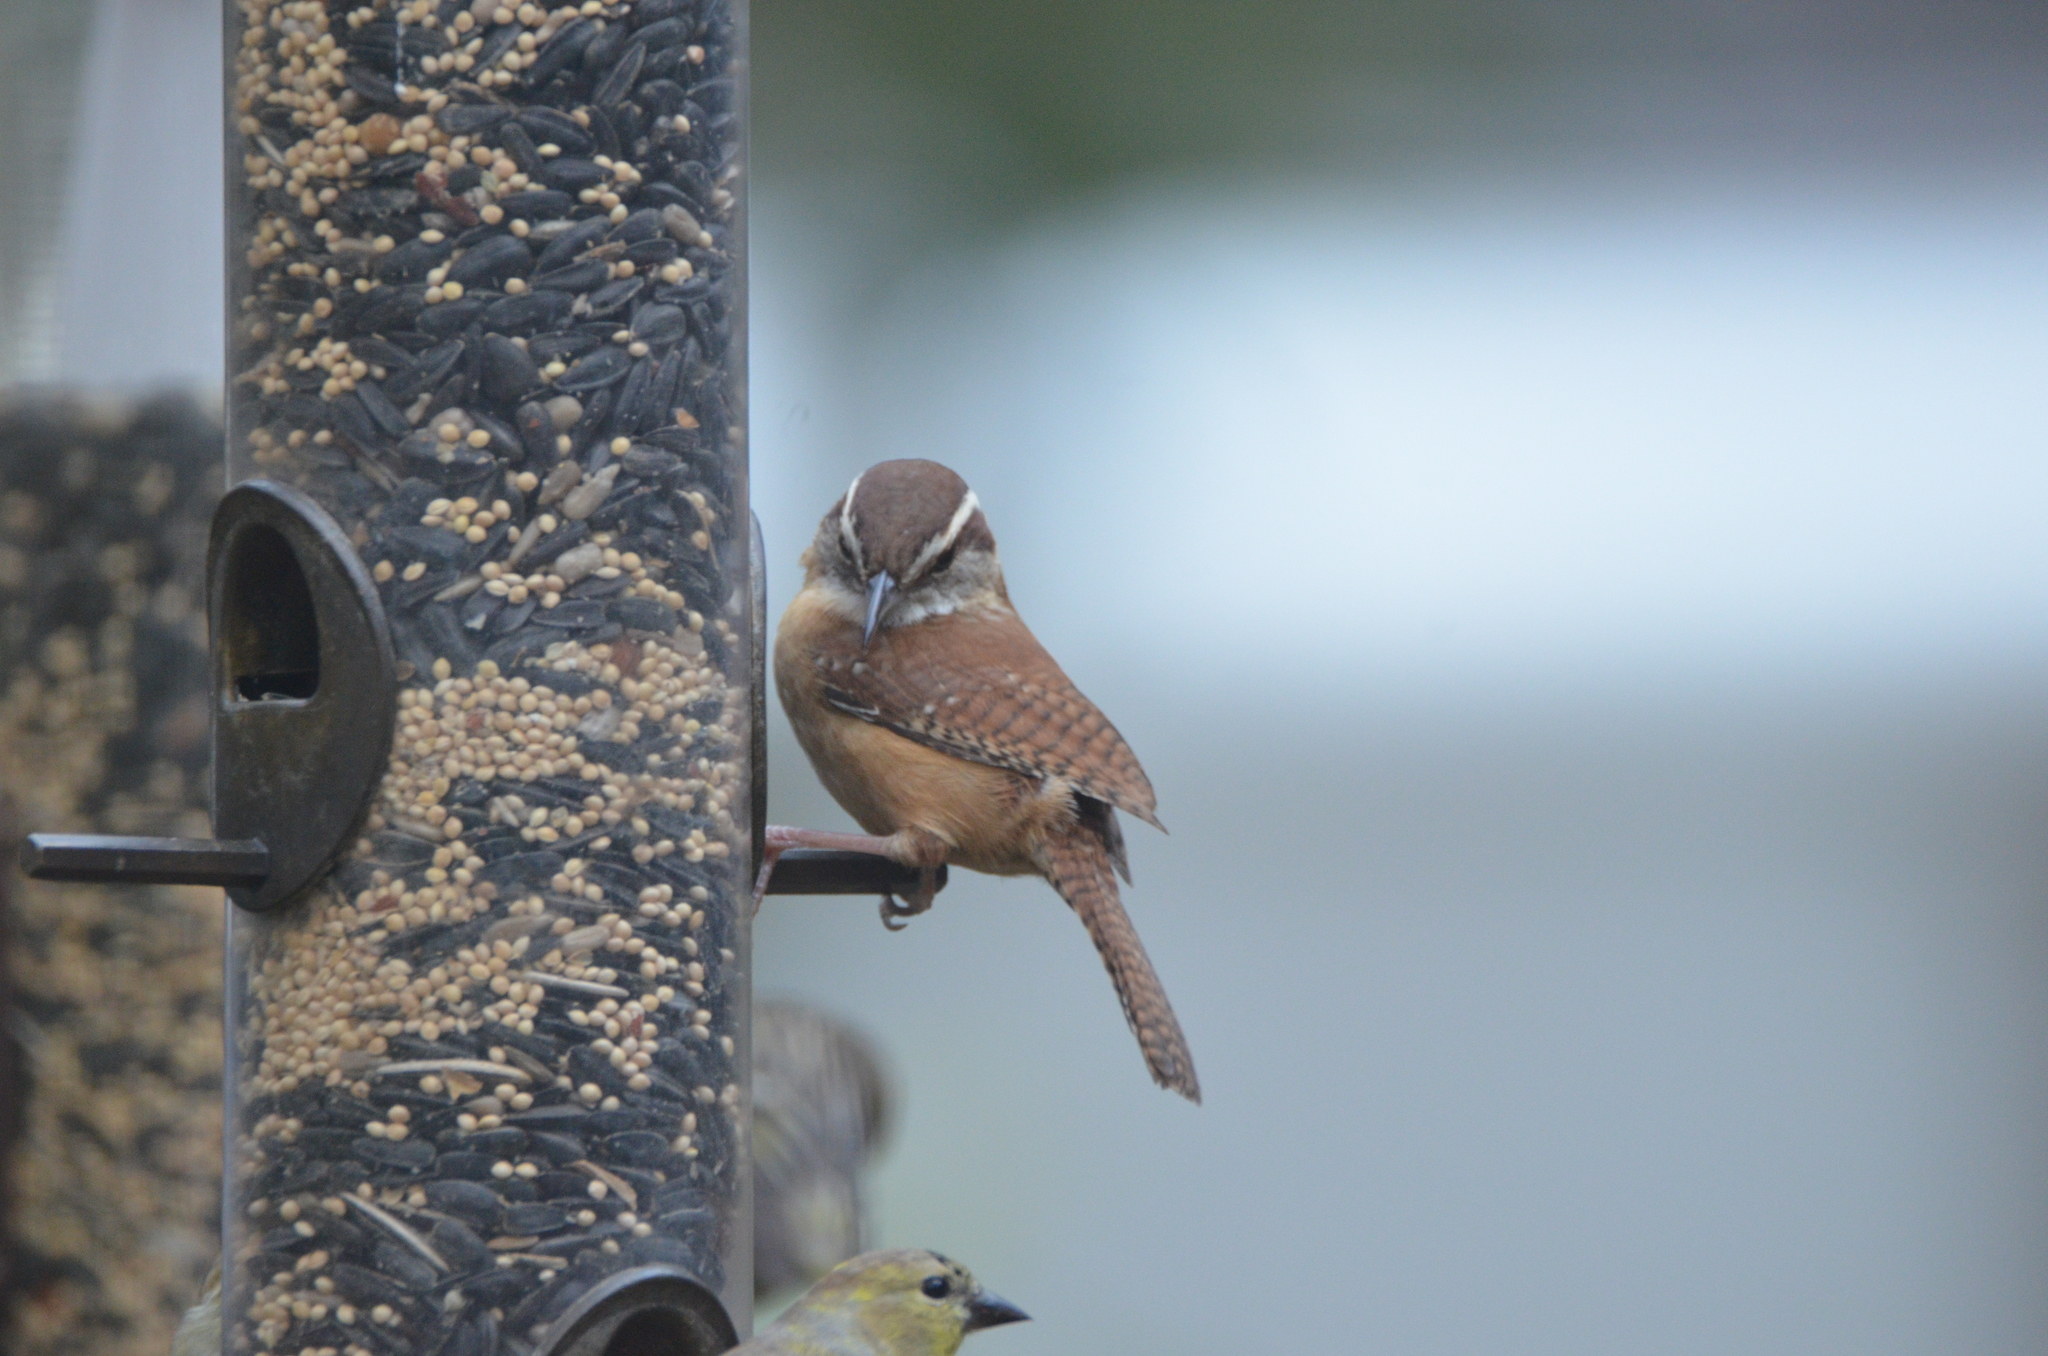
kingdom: Animalia
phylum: Chordata
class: Aves
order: Passeriformes
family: Troglodytidae
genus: Thryothorus
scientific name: Thryothorus ludovicianus
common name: Carolina wren
